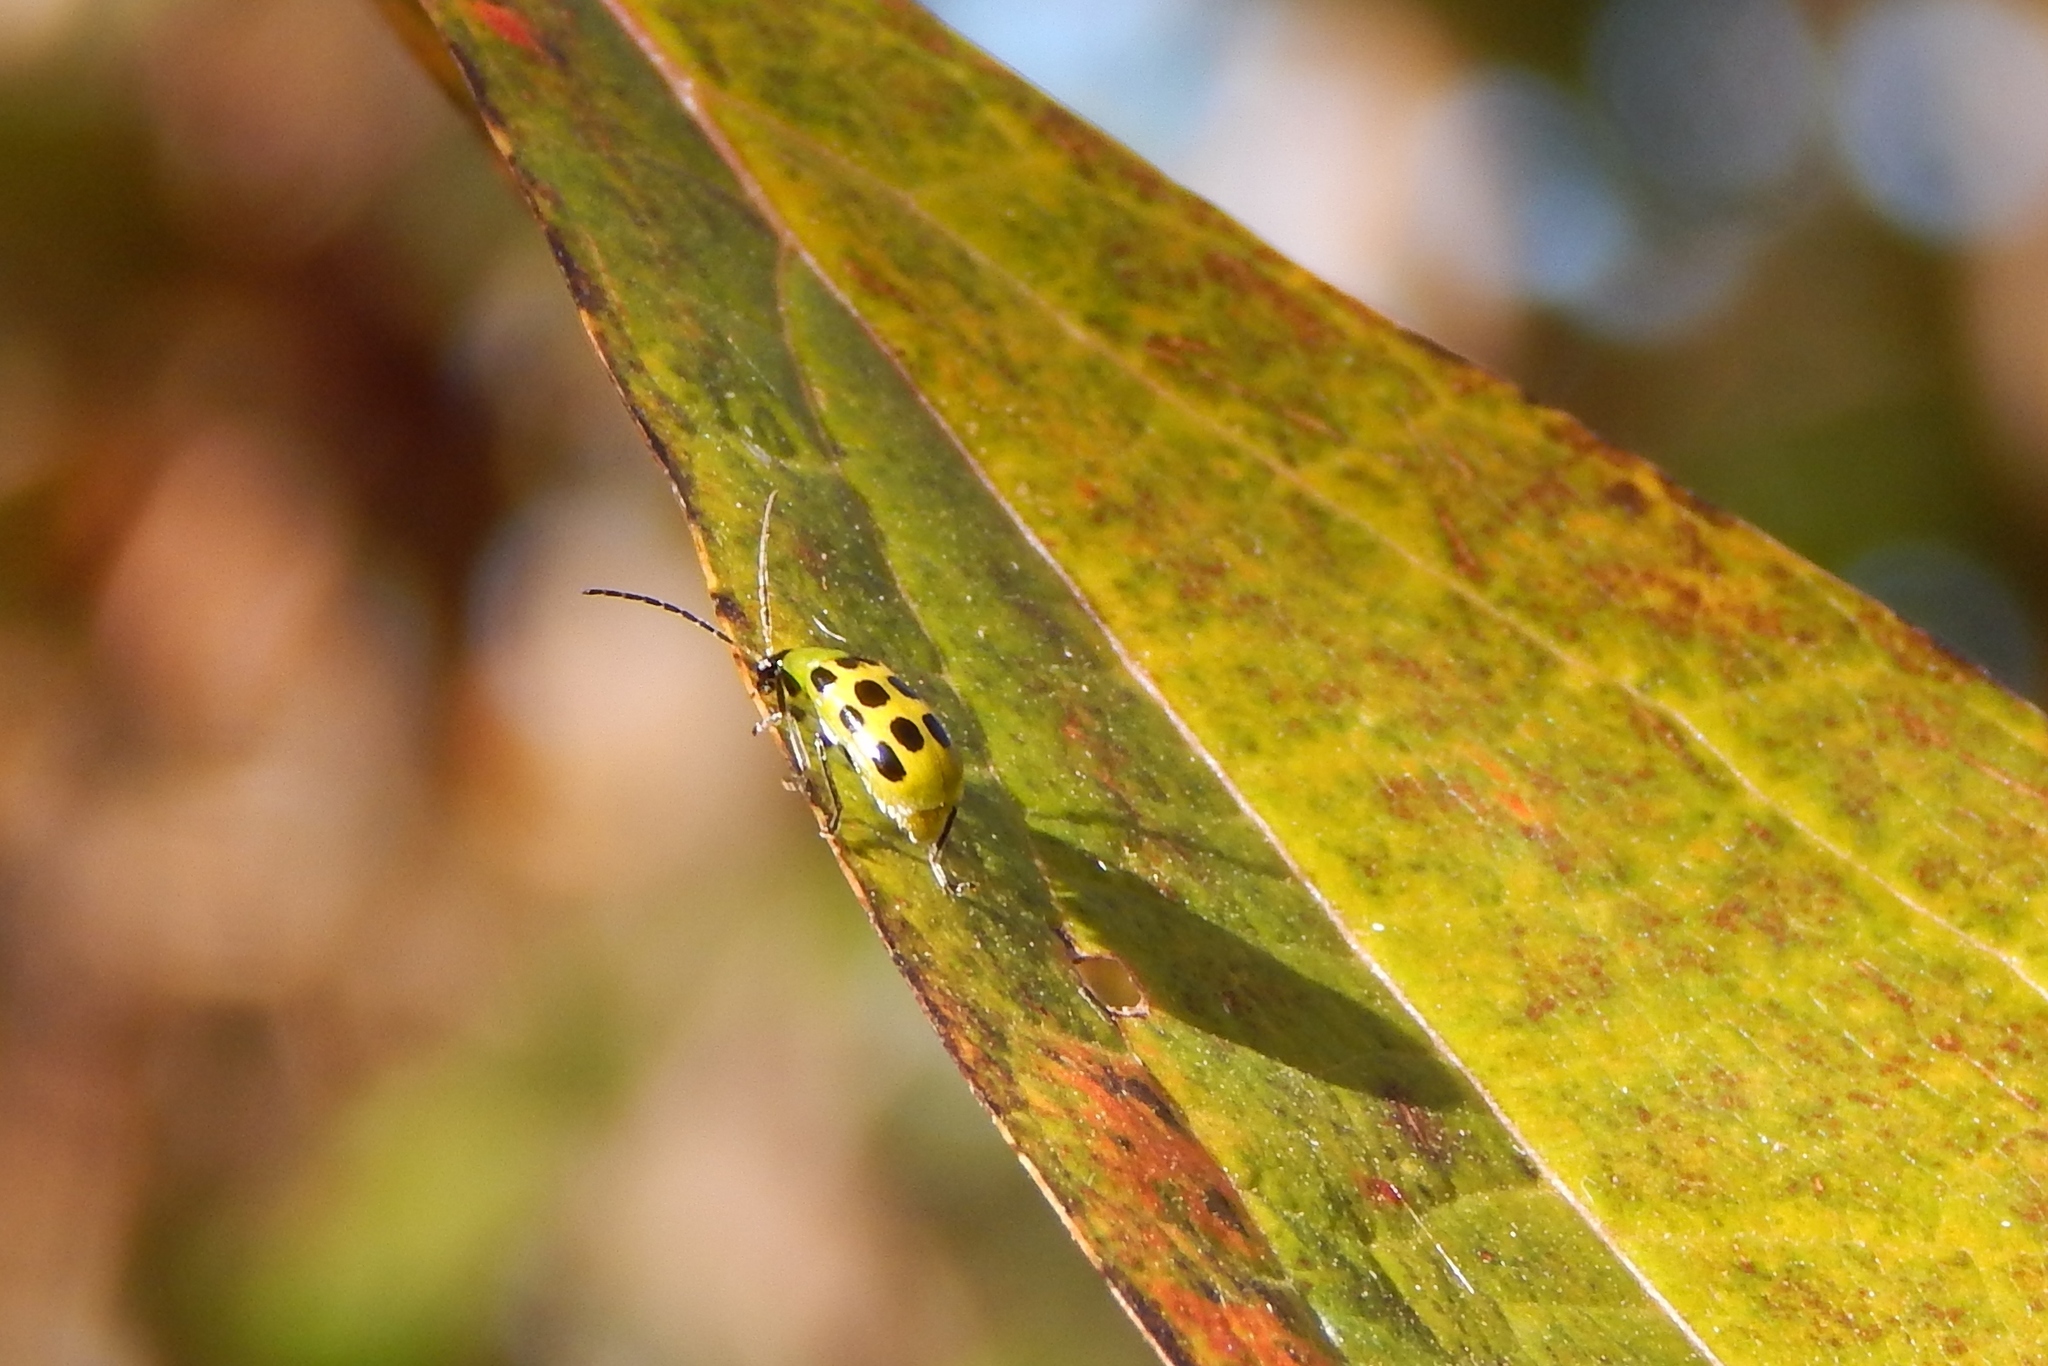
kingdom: Animalia
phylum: Arthropoda
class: Insecta
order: Coleoptera
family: Chrysomelidae
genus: Diabrotica
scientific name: Diabrotica undecimpunctata
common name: Spotted cucumber beetle
